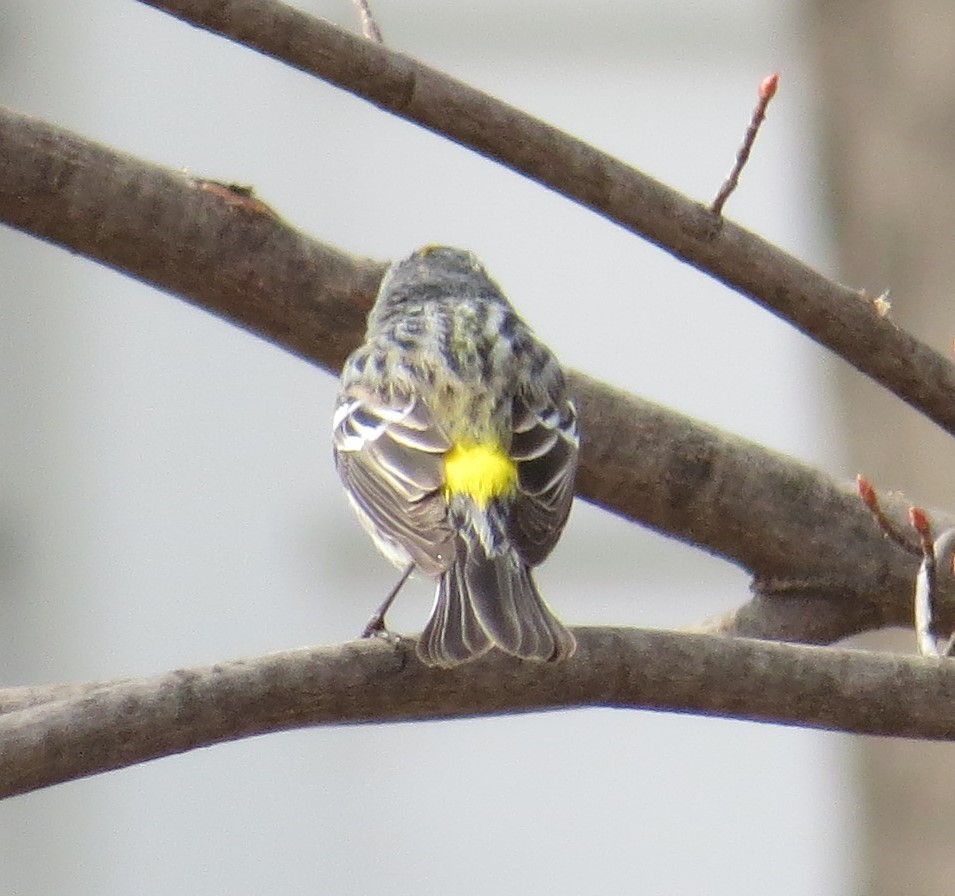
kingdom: Animalia
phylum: Chordata
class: Aves
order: Passeriformes
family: Parulidae
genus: Setophaga
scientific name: Setophaga coronata
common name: Myrtle warbler
